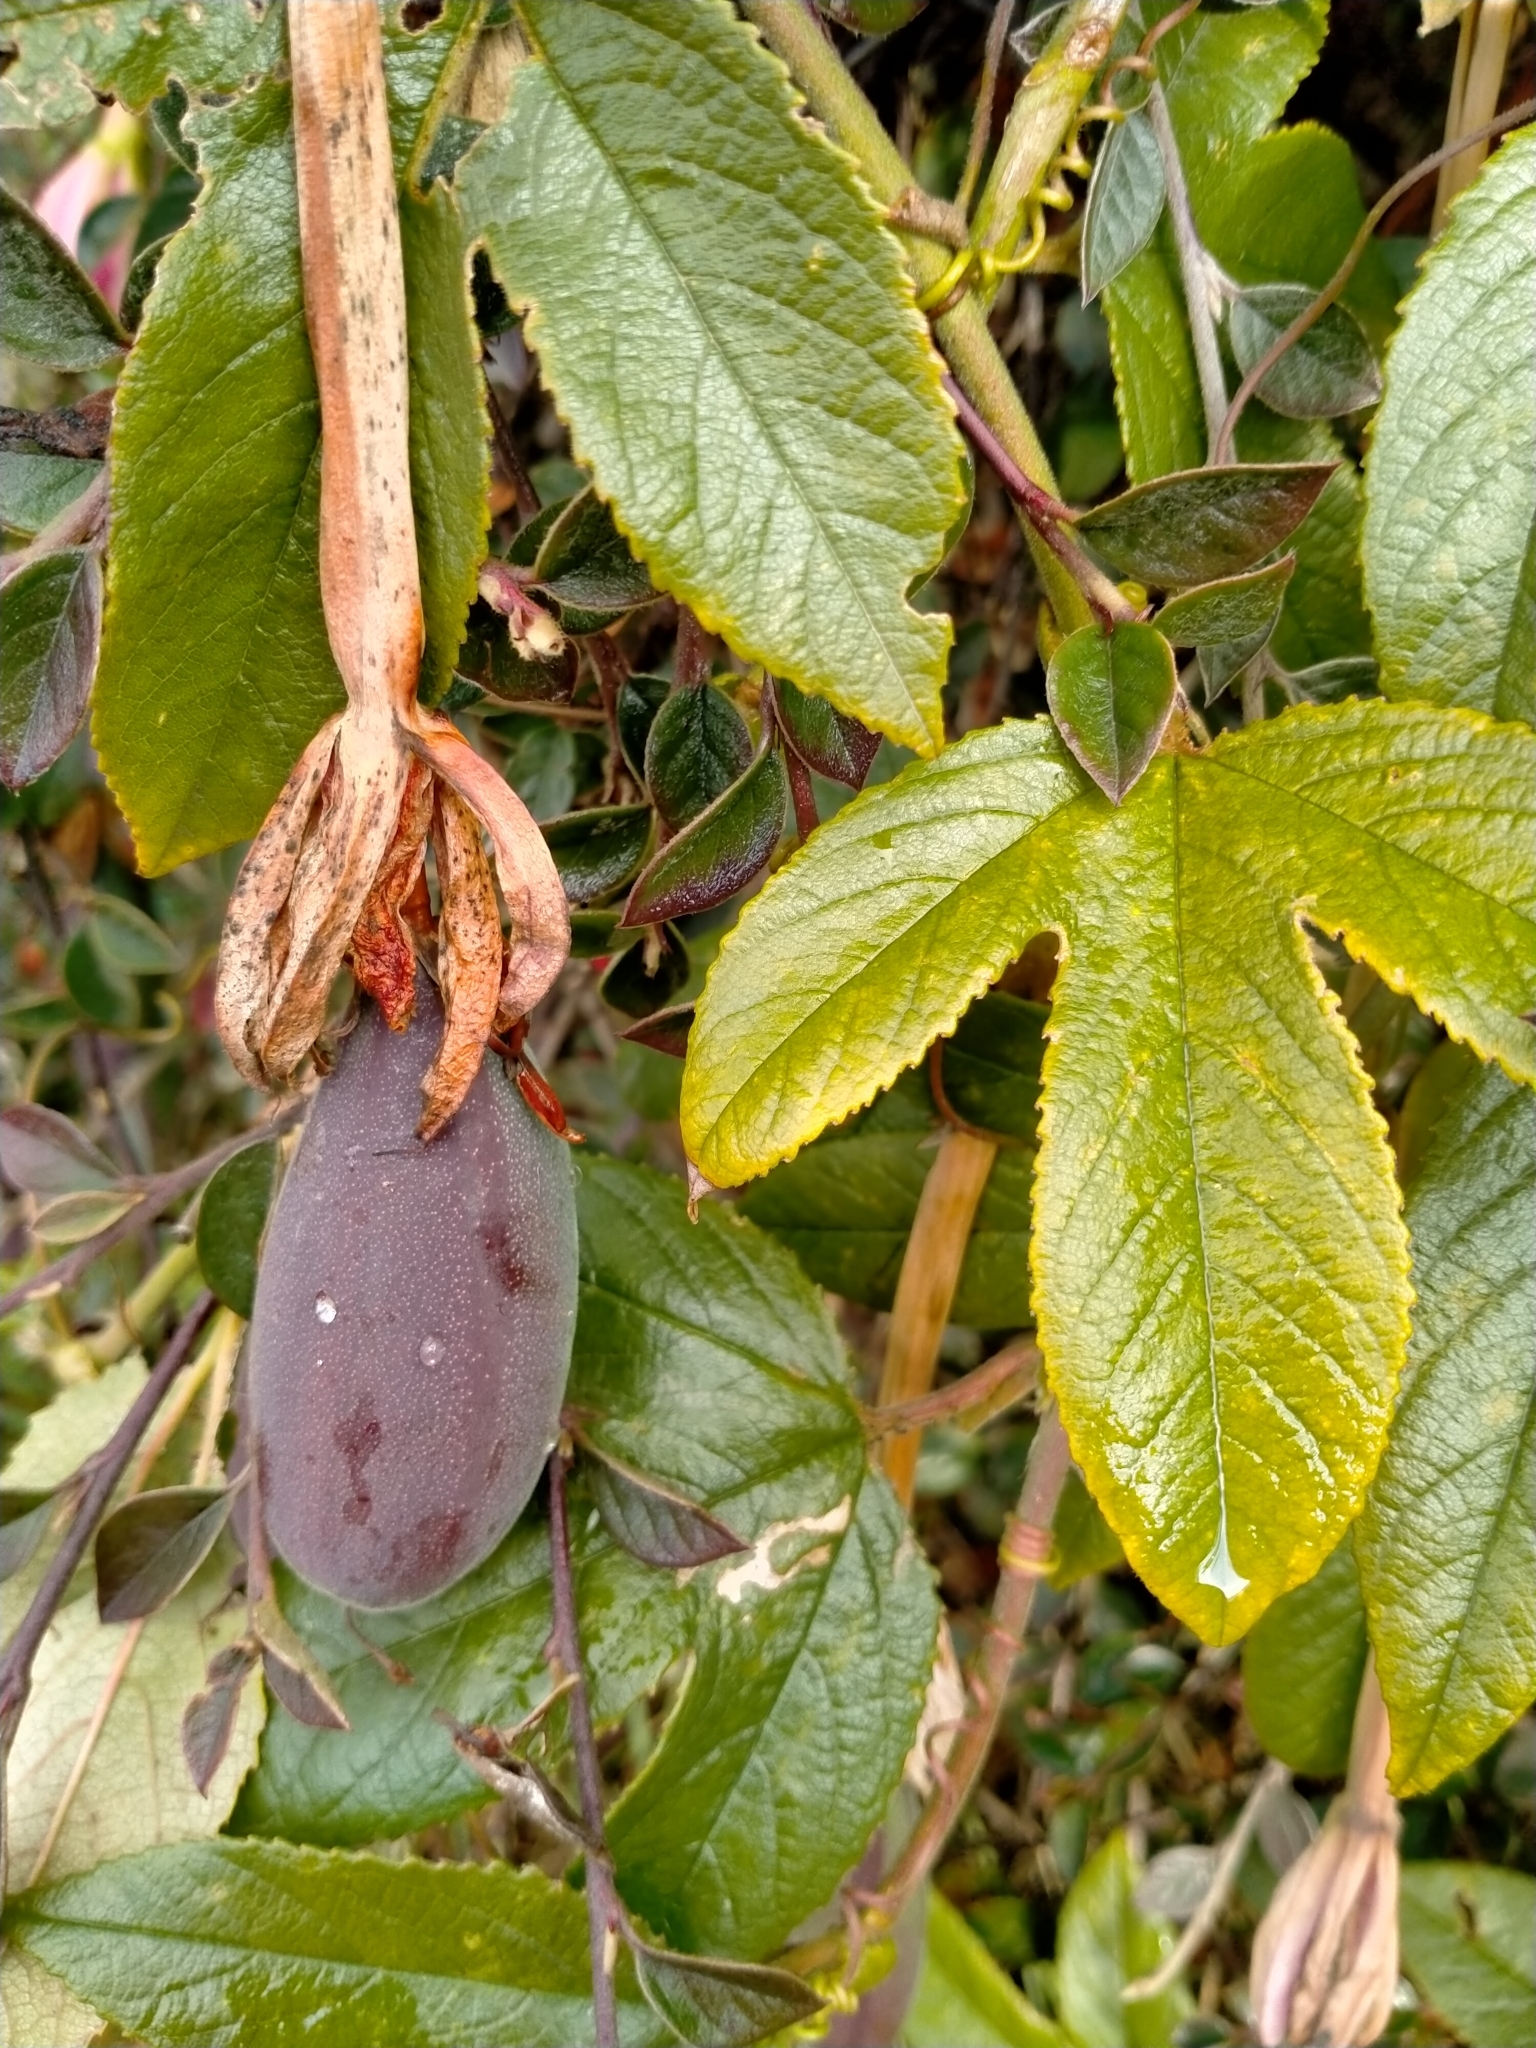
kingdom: Plantae
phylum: Tracheophyta
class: Magnoliopsida
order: Malpighiales
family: Passifloraceae
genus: Passiflora
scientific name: Passiflora tripartita
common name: Banana poka
